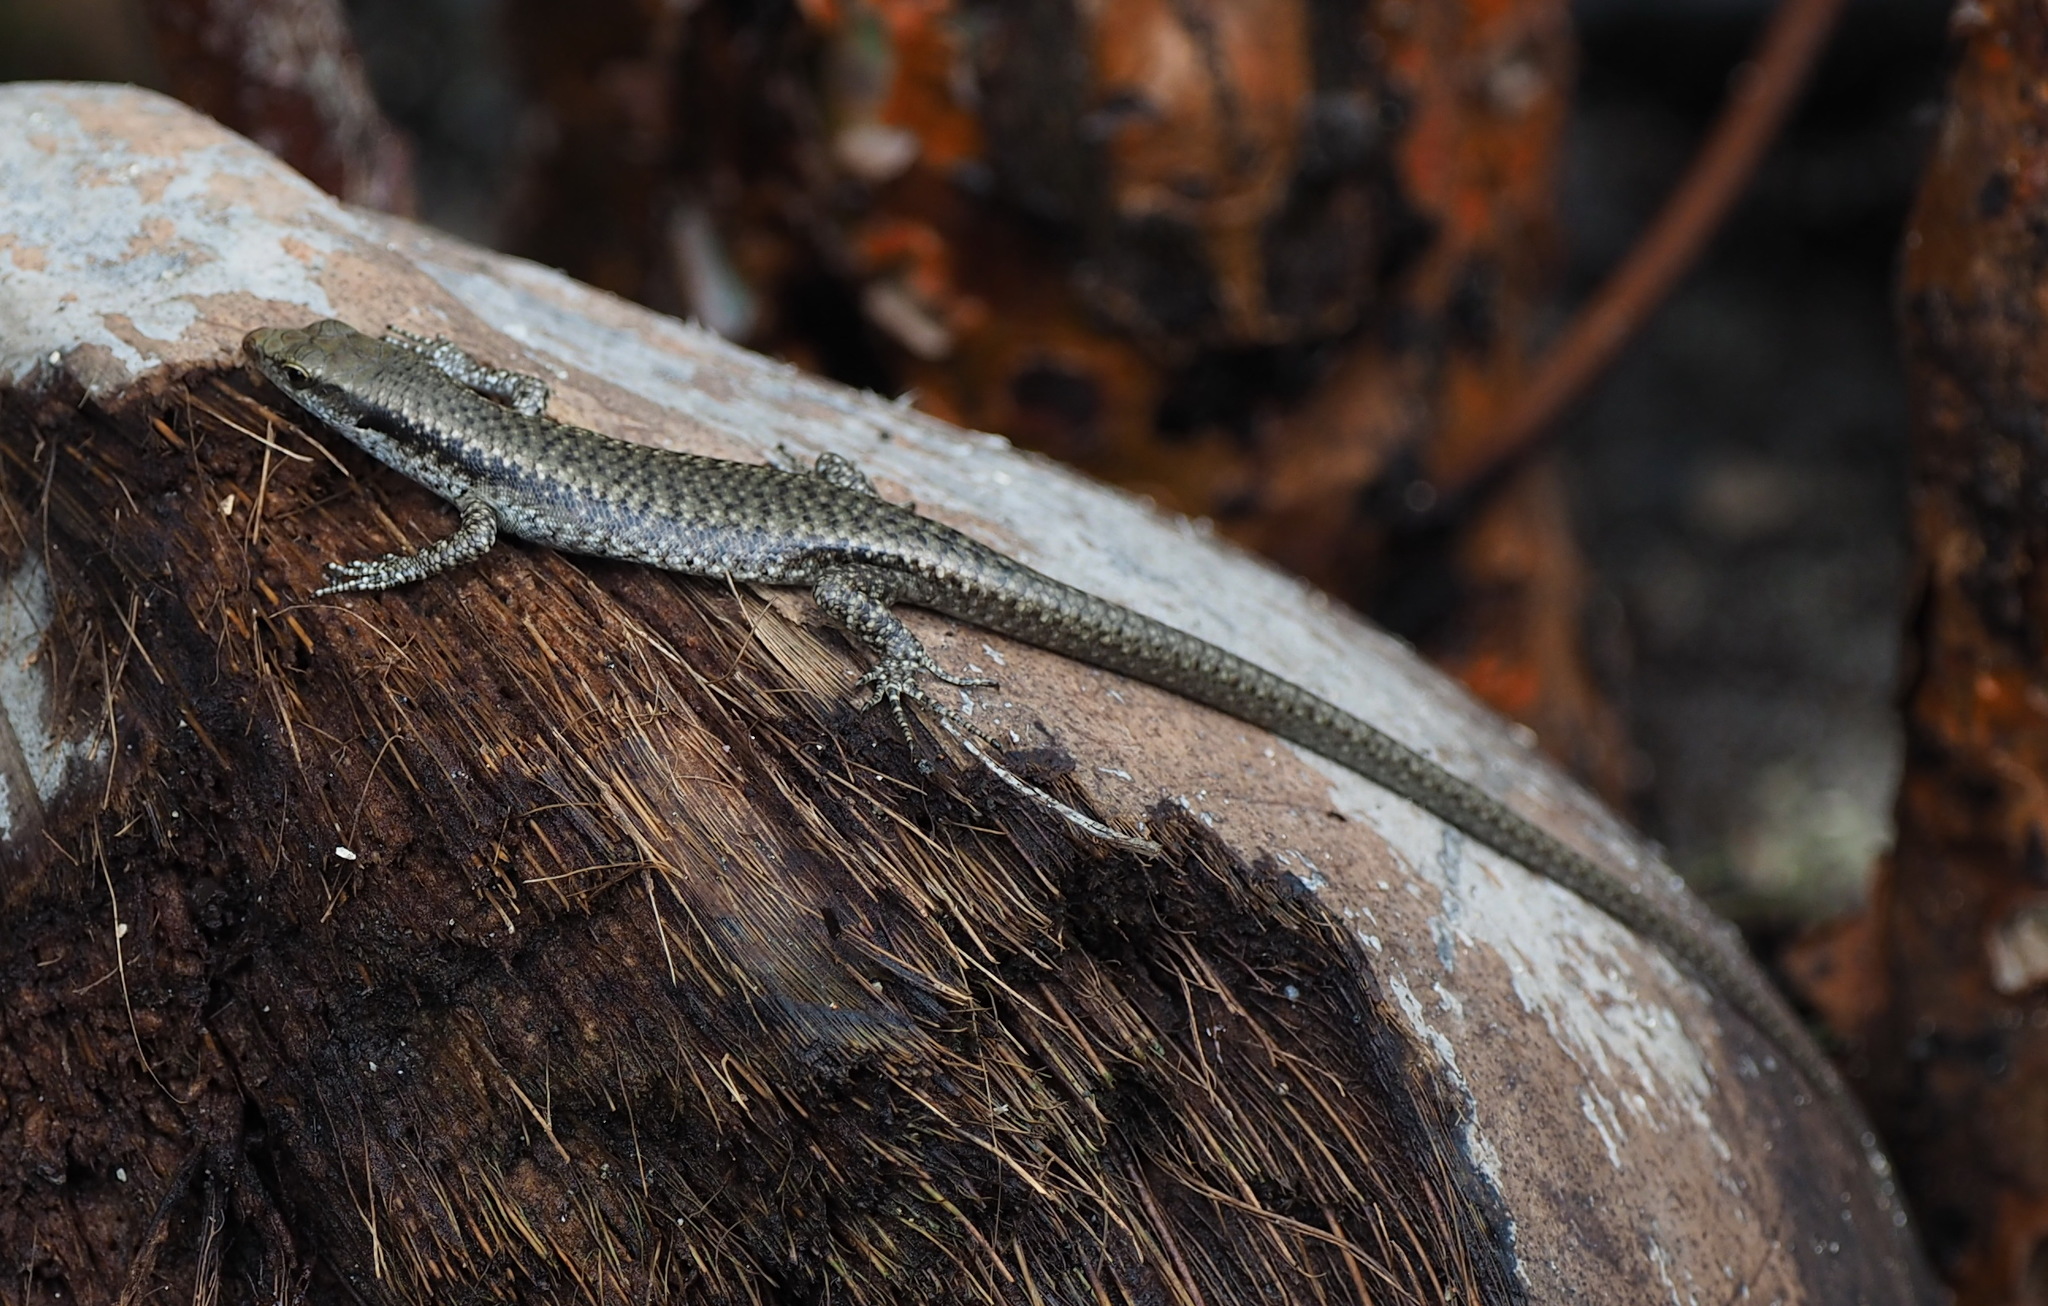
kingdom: Animalia
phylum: Chordata
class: Squamata
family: Scincidae
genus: Emoia
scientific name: Emoia atrocostata
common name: Littoral skink
